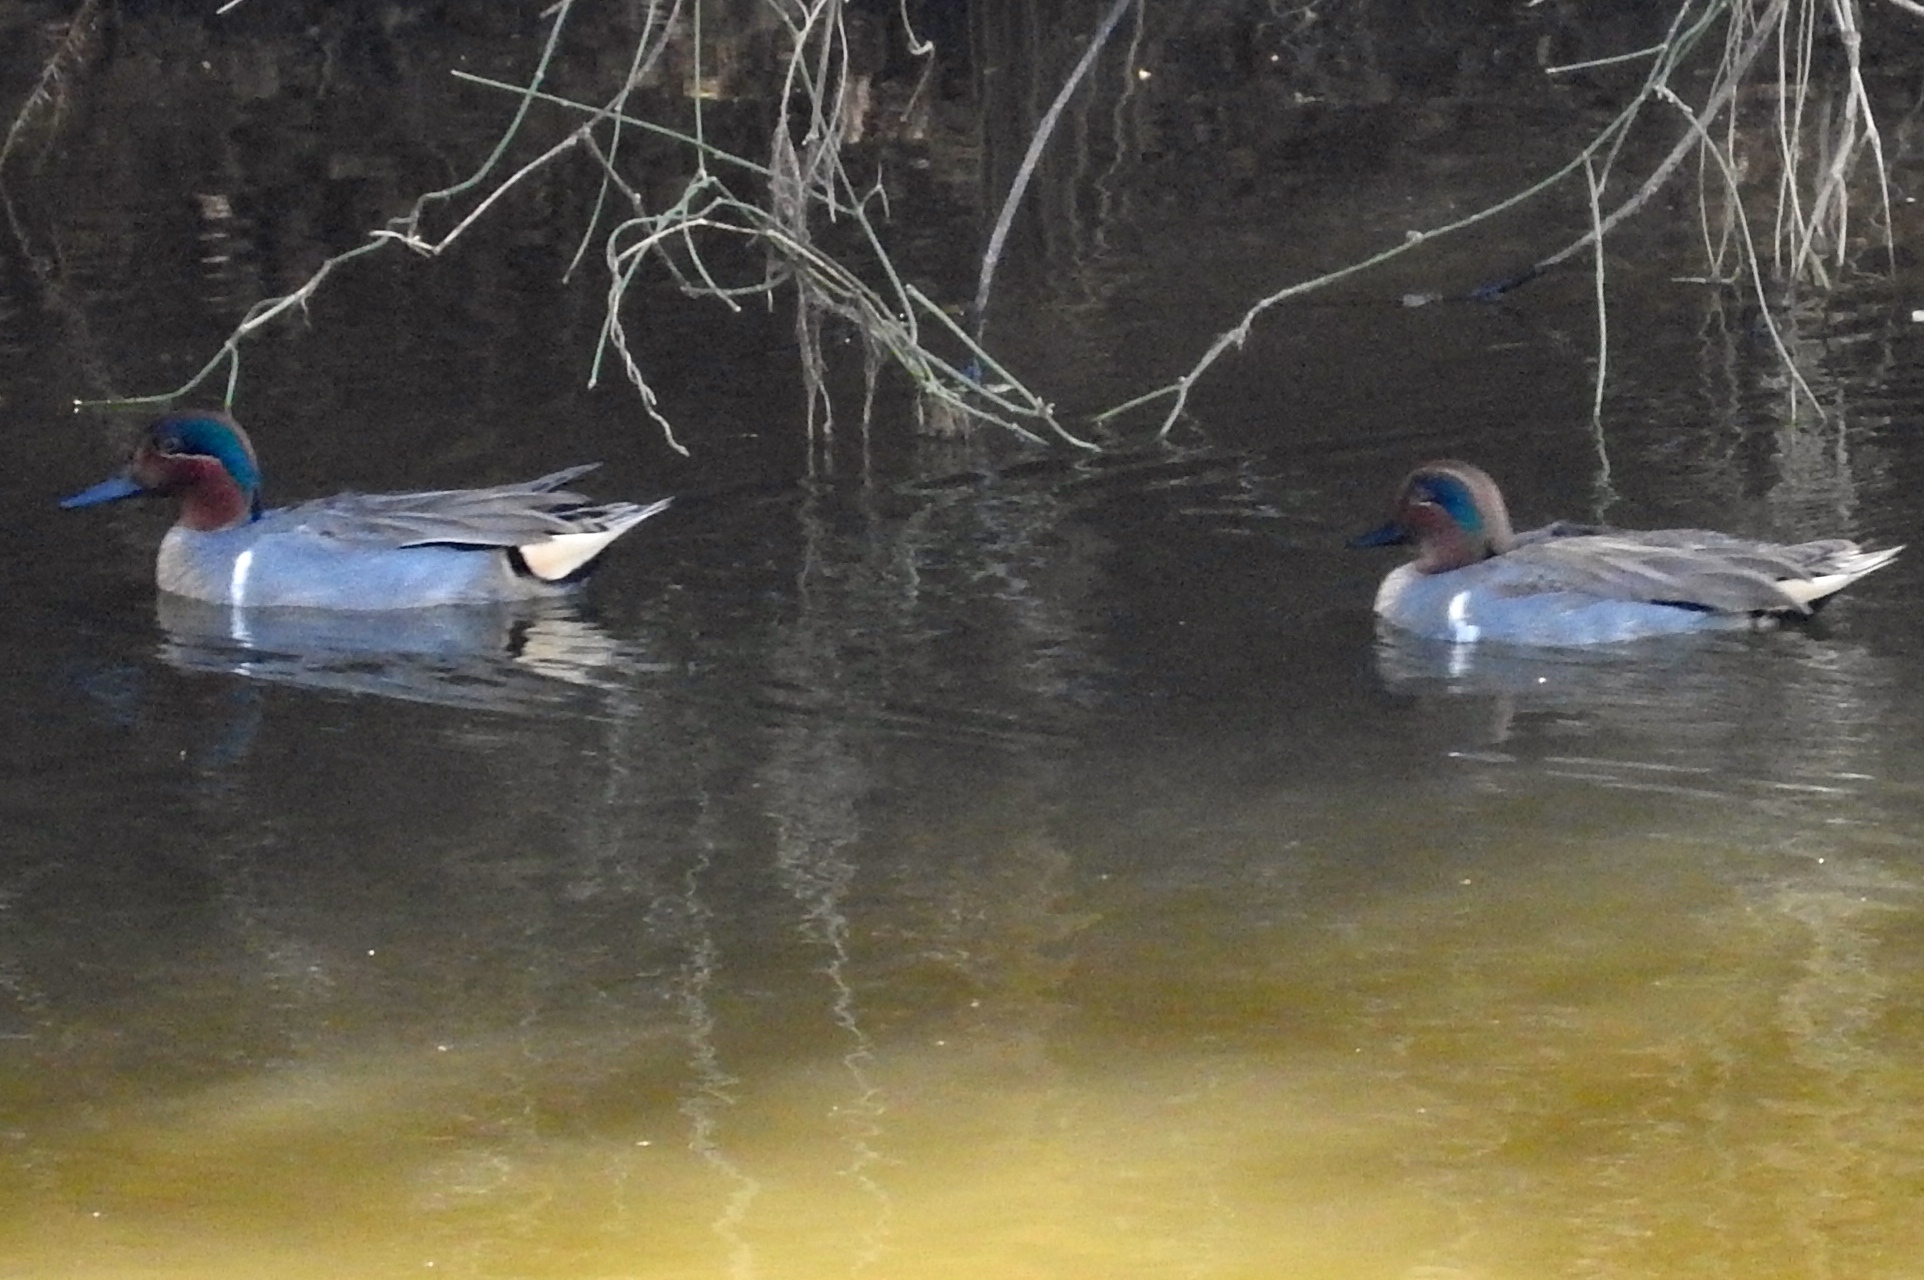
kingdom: Animalia
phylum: Chordata
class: Aves
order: Anseriformes
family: Anatidae
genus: Anas
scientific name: Anas carolinensis
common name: Green-winged teal
